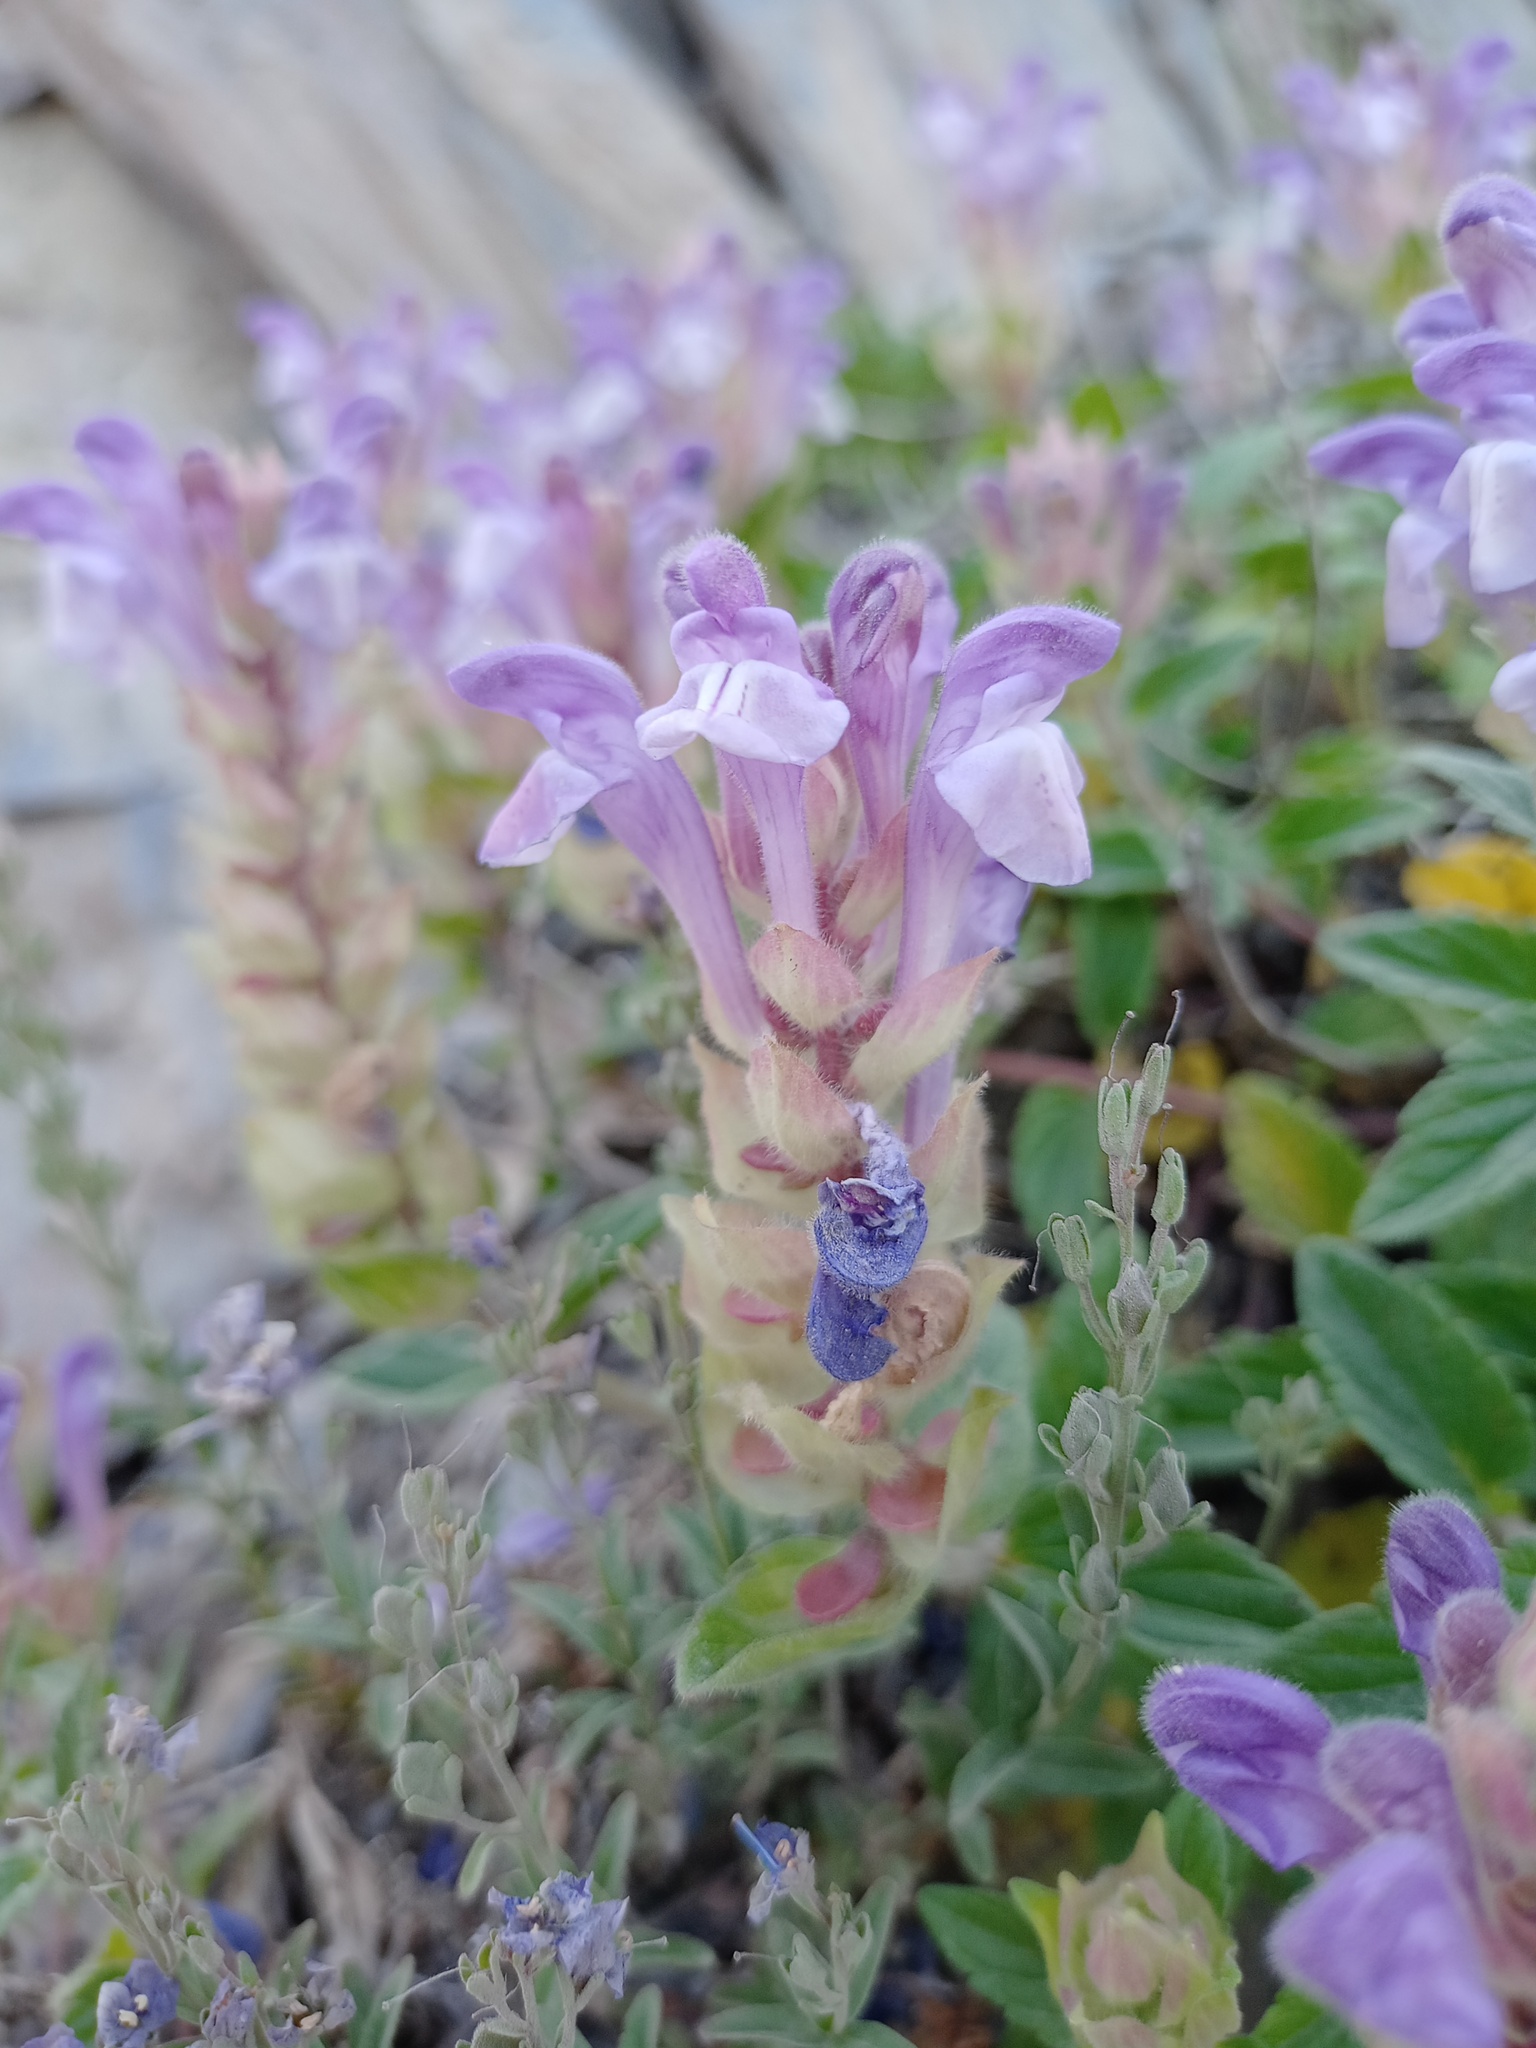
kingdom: Plantae
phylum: Tracheophyta
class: Magnoliopsida
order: Lamiales
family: Lamiaceae
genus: Scutellaria
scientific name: Scutellaria alpina
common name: Alpine scullcap
